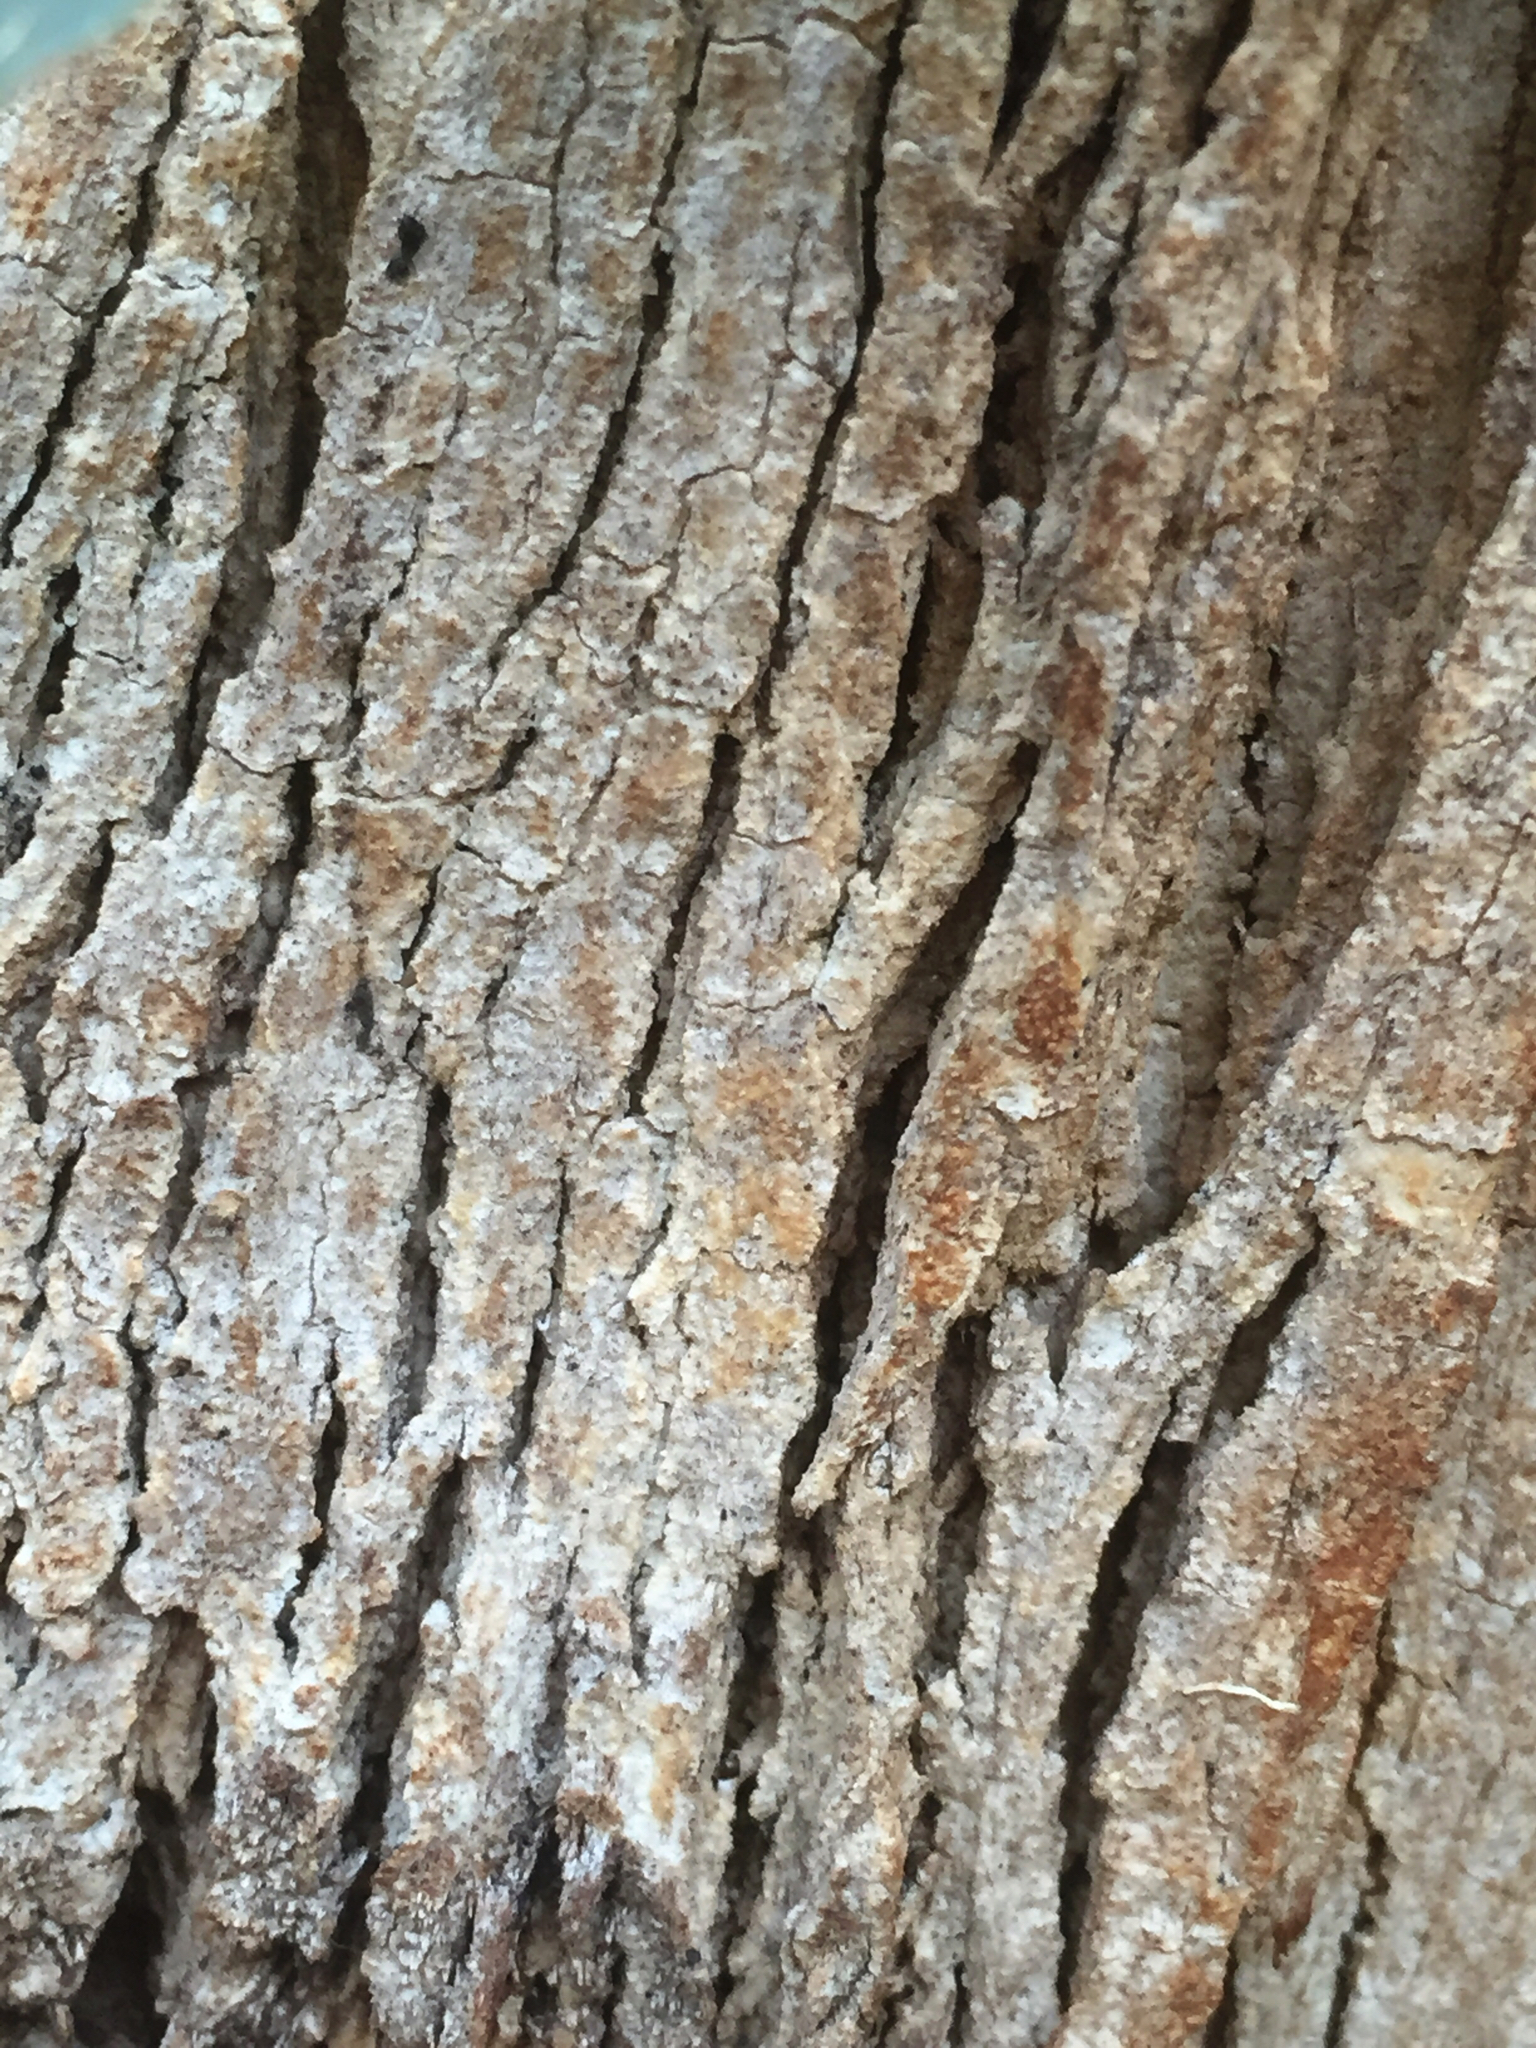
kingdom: Plantae
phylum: Tracheophyta
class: Magnoliopsida
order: Myrtales
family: Myrtaceae
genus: Eucalyptus
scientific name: Eucalyptus melliodora
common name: Yellow ironbox
